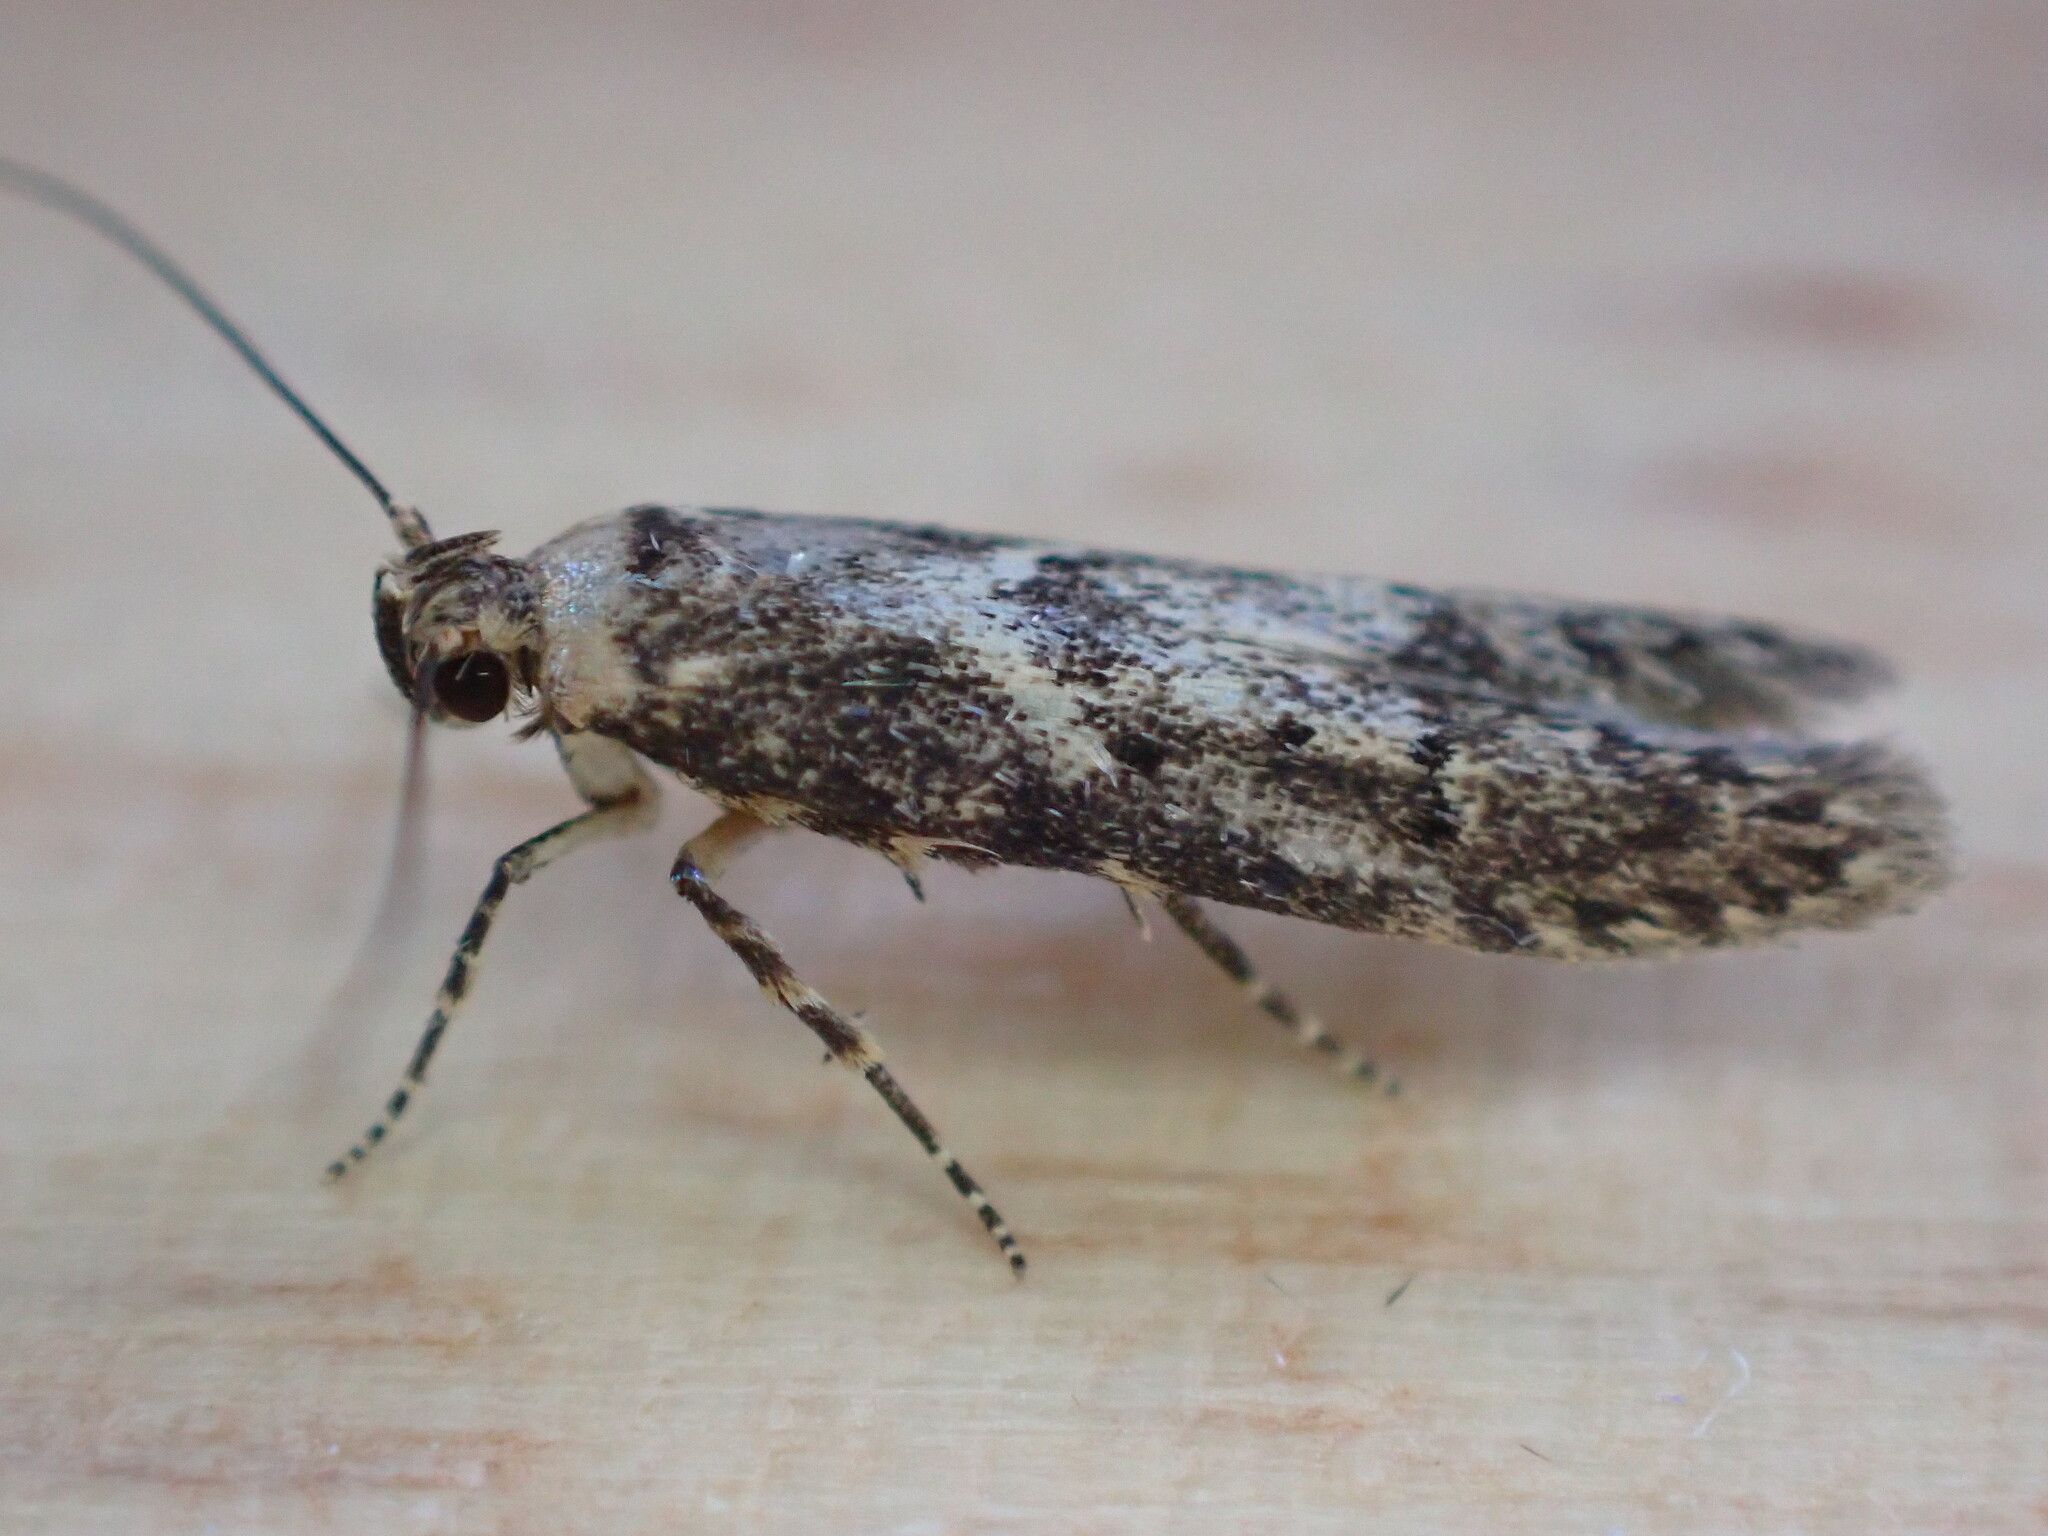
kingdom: Animalia
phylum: Arthropoda
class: Insecta
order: Lepidoptera
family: Blastobasidae
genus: Blastobasis
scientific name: Blastobasis adustella
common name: Dingy dowd
